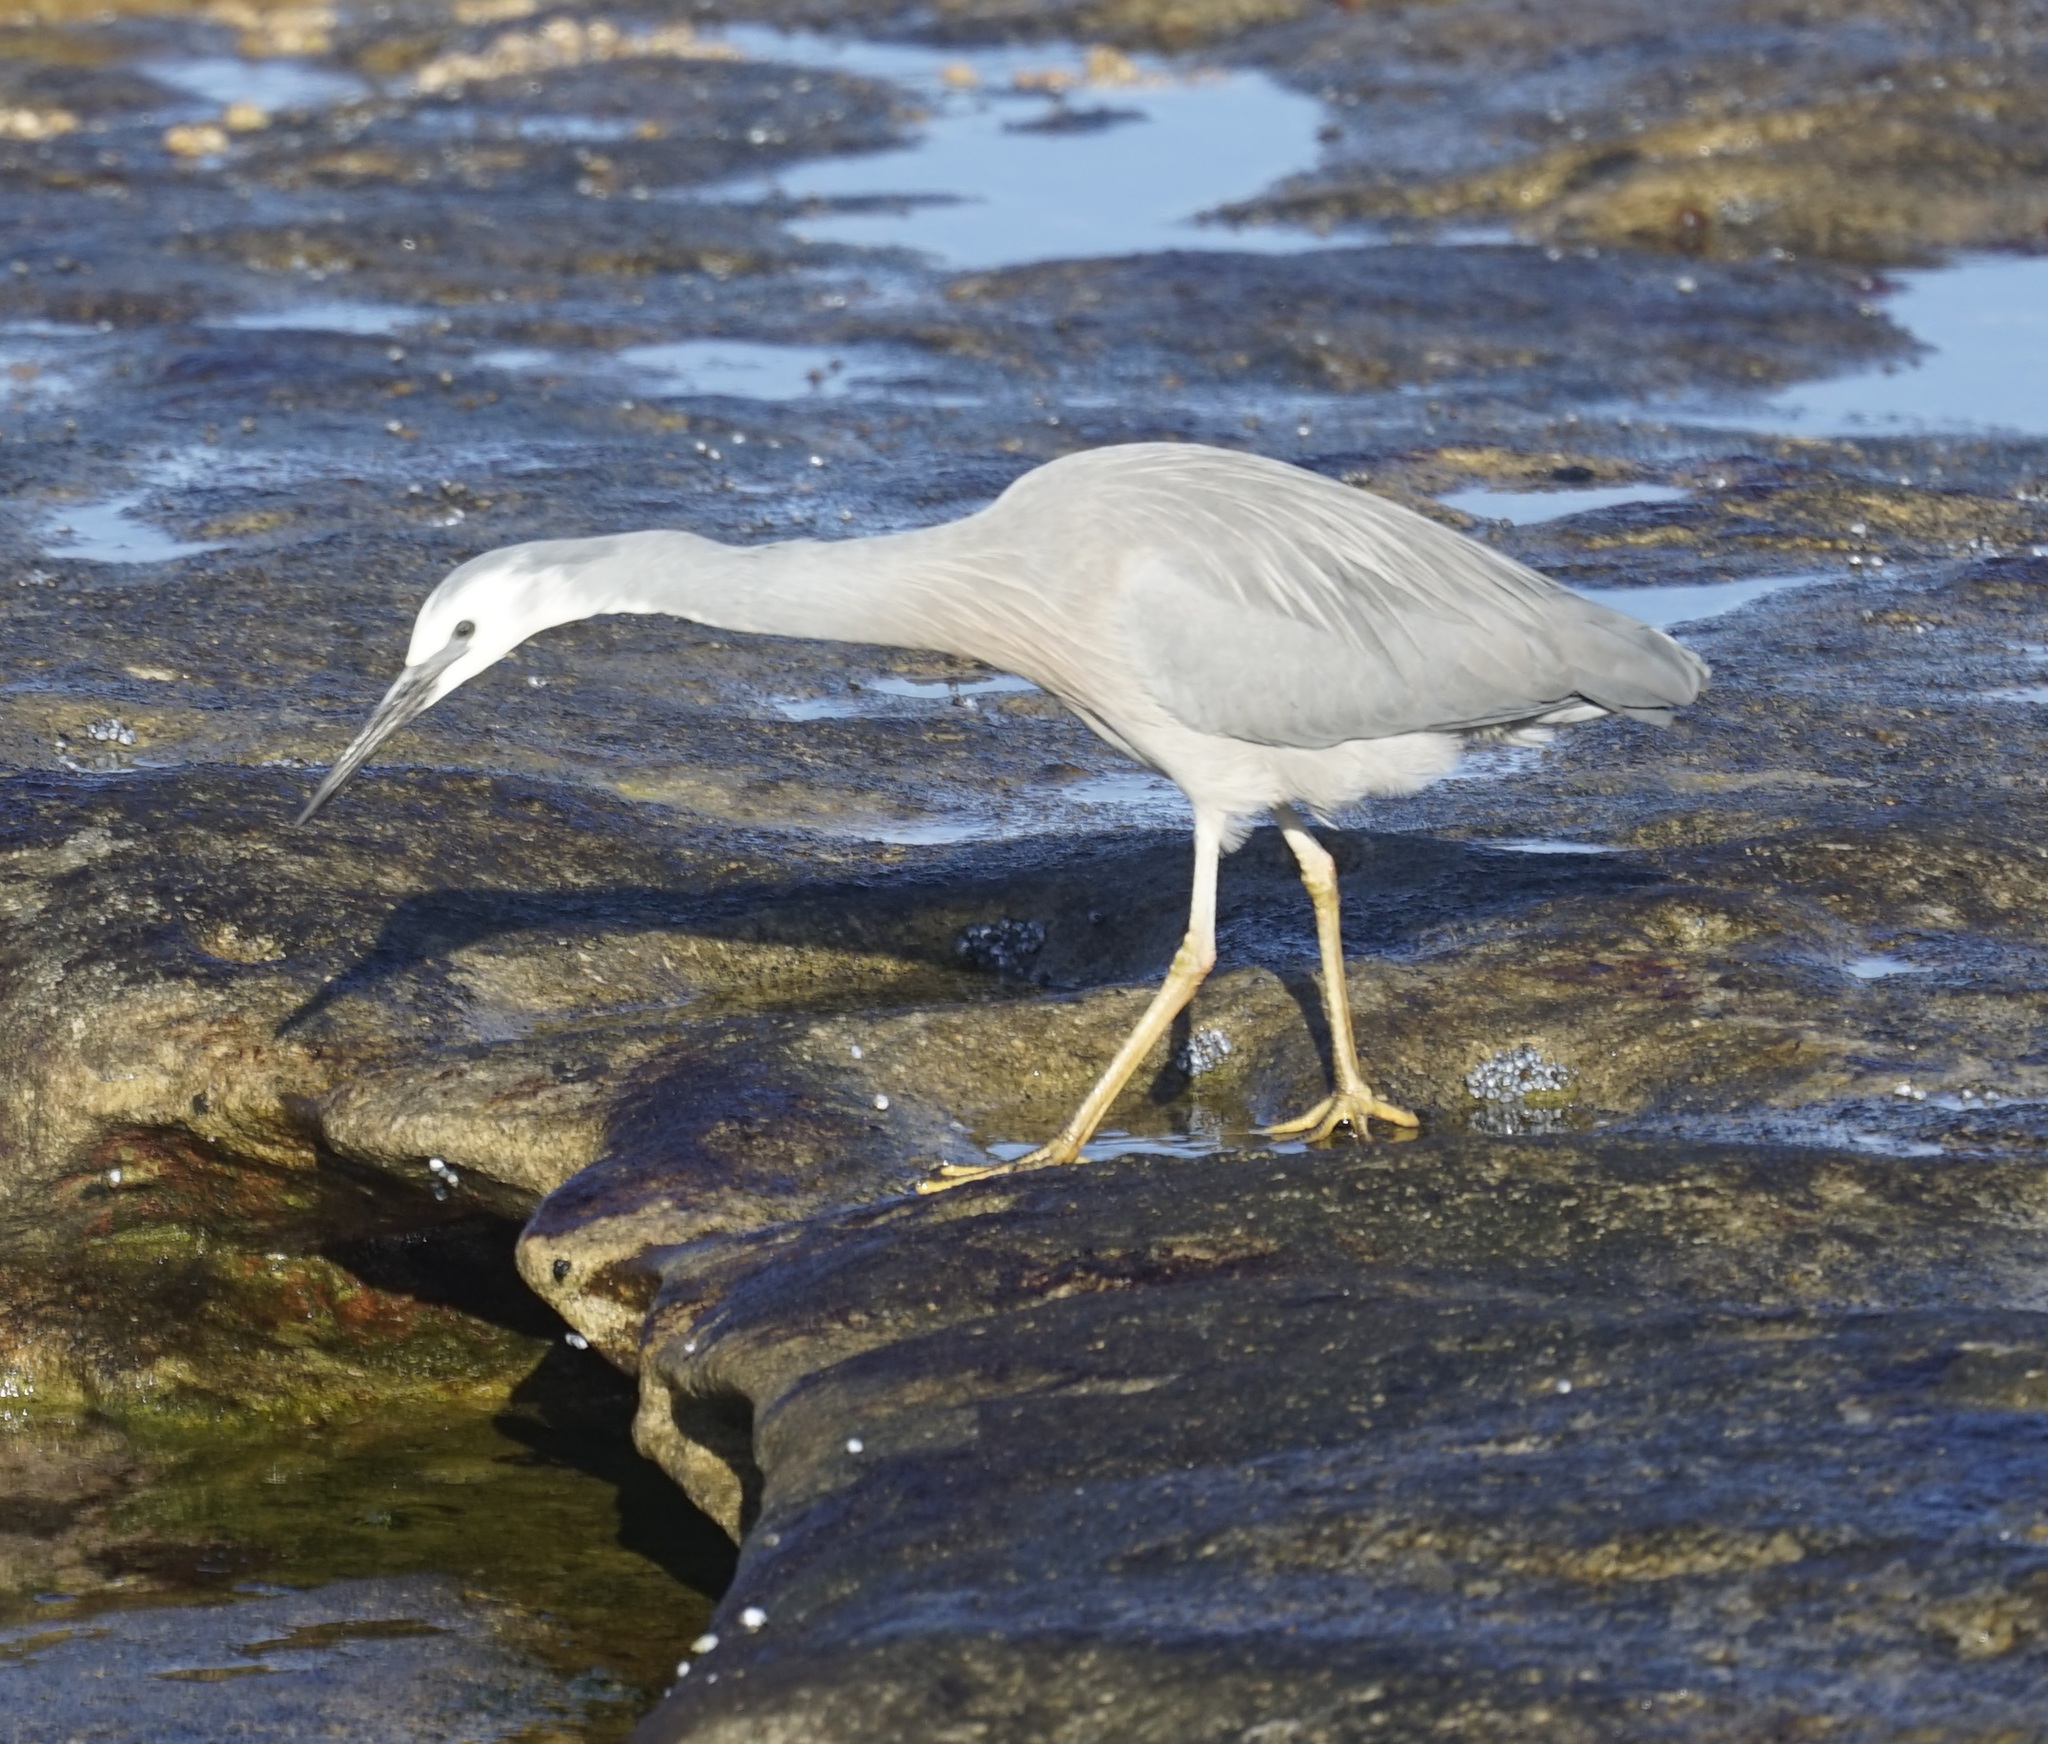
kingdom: Animalia
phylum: Chordata
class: Aves
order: Pelecaniformes
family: Ardeidae
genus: Egretta
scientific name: Egretta novaehollandiae
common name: White-faced heron
